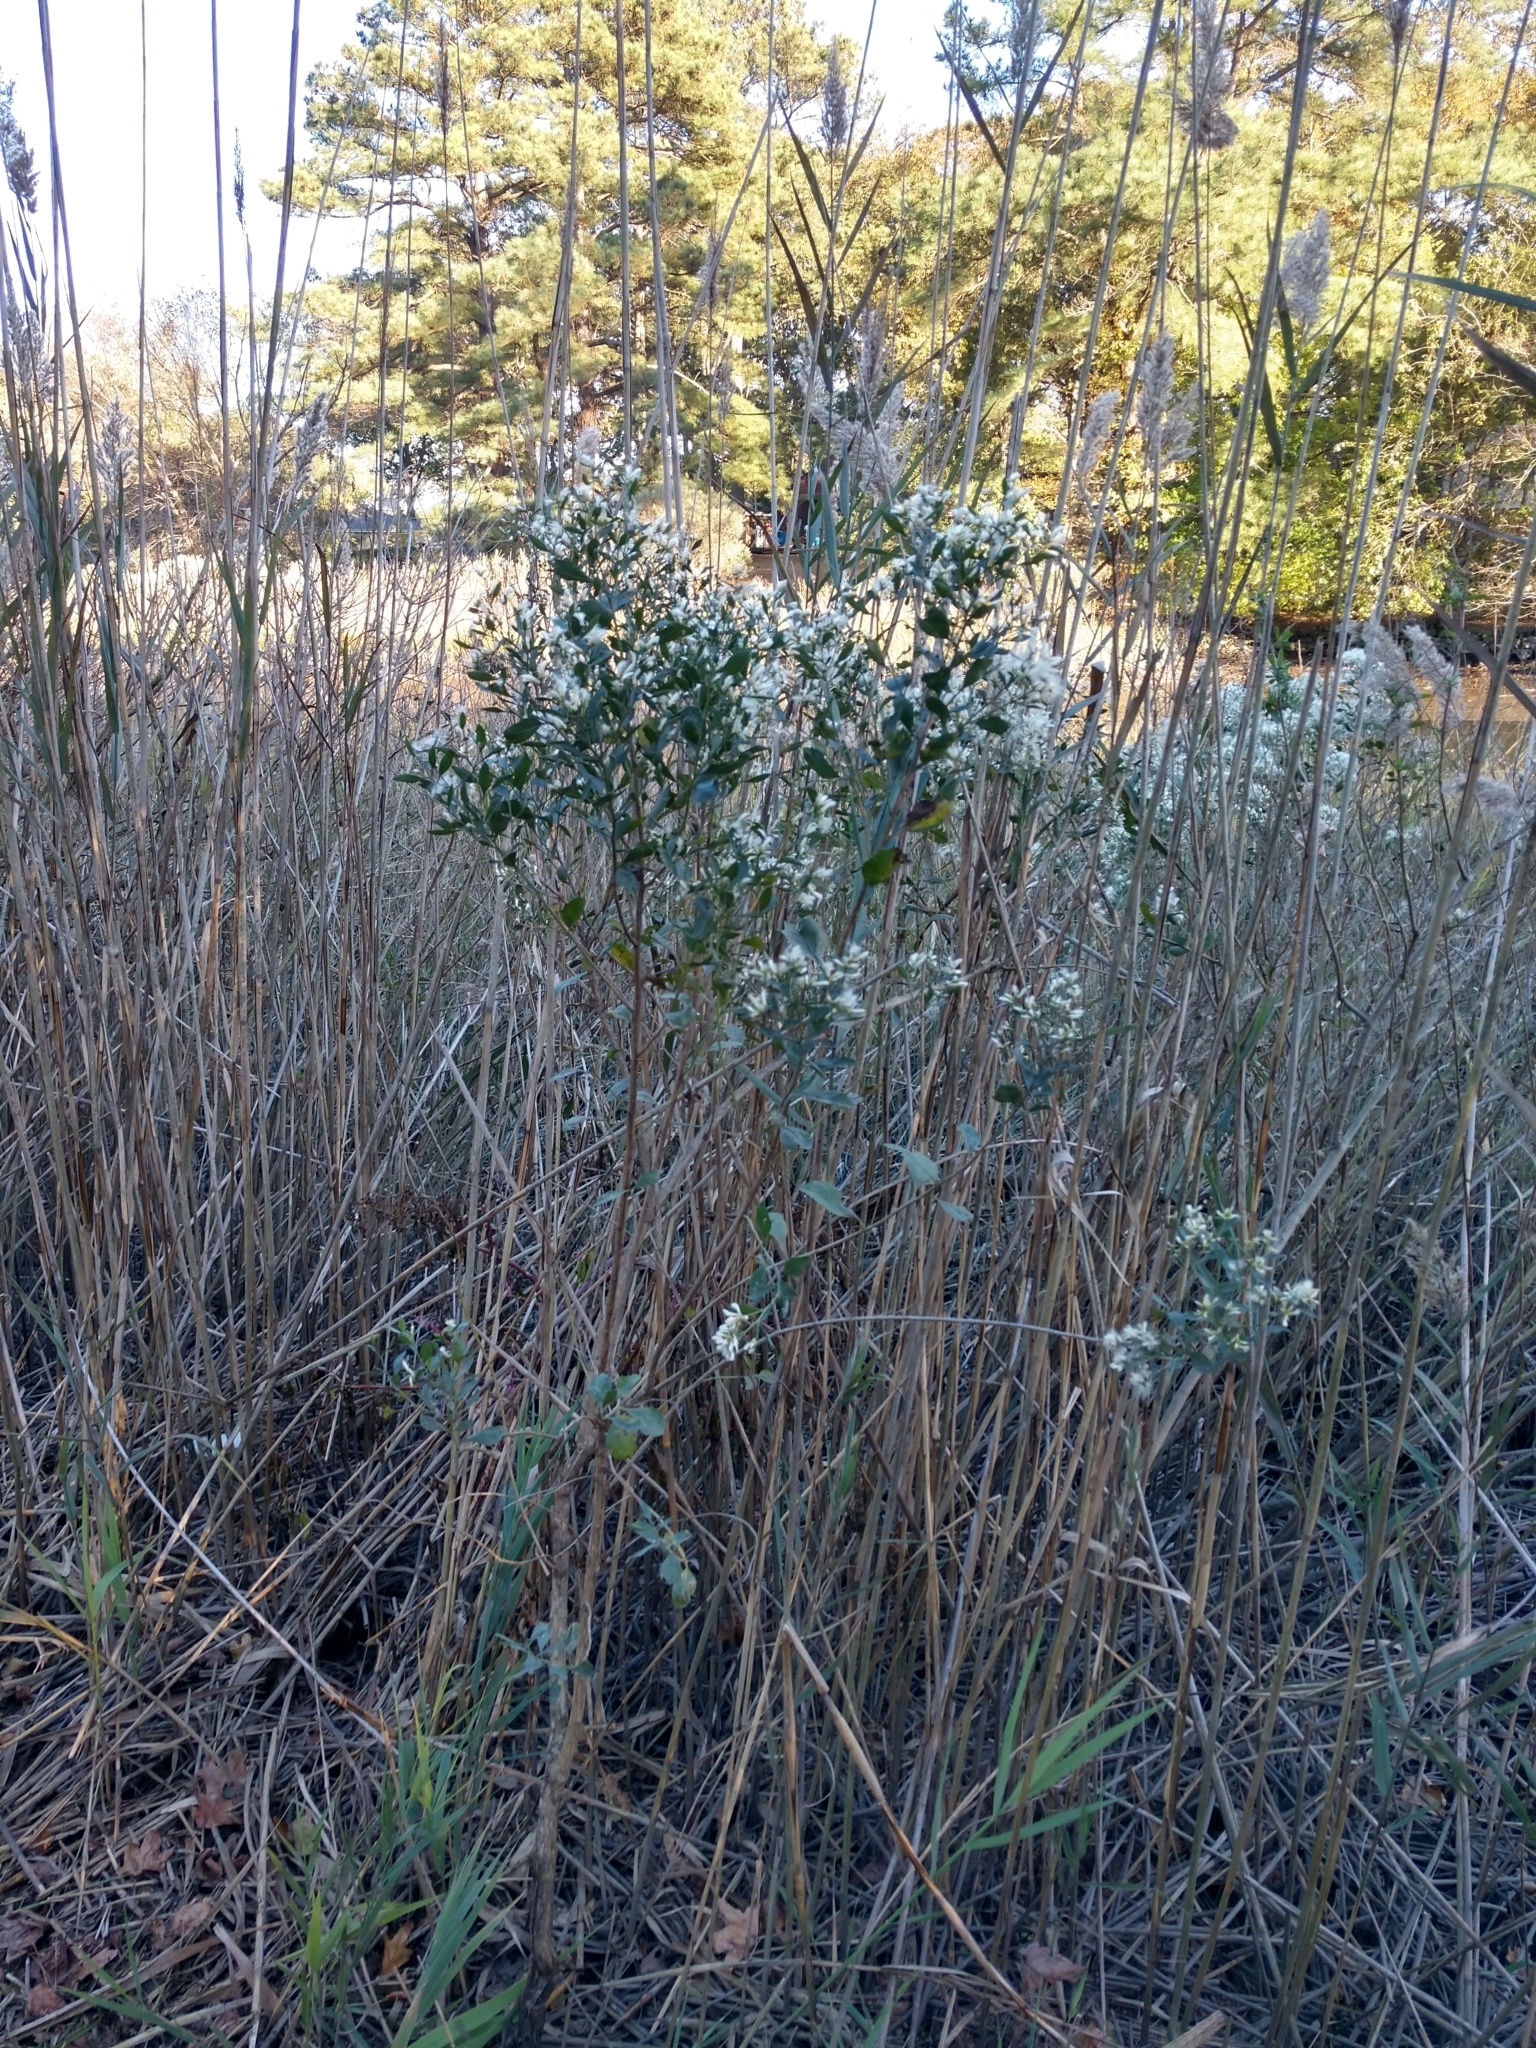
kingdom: Plantae
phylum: Tracheophyta
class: Magnoliopsida
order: Asterales
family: Asteraceae
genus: Baccharis
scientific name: Baccharis halimifolia
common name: Eastern baccharis
